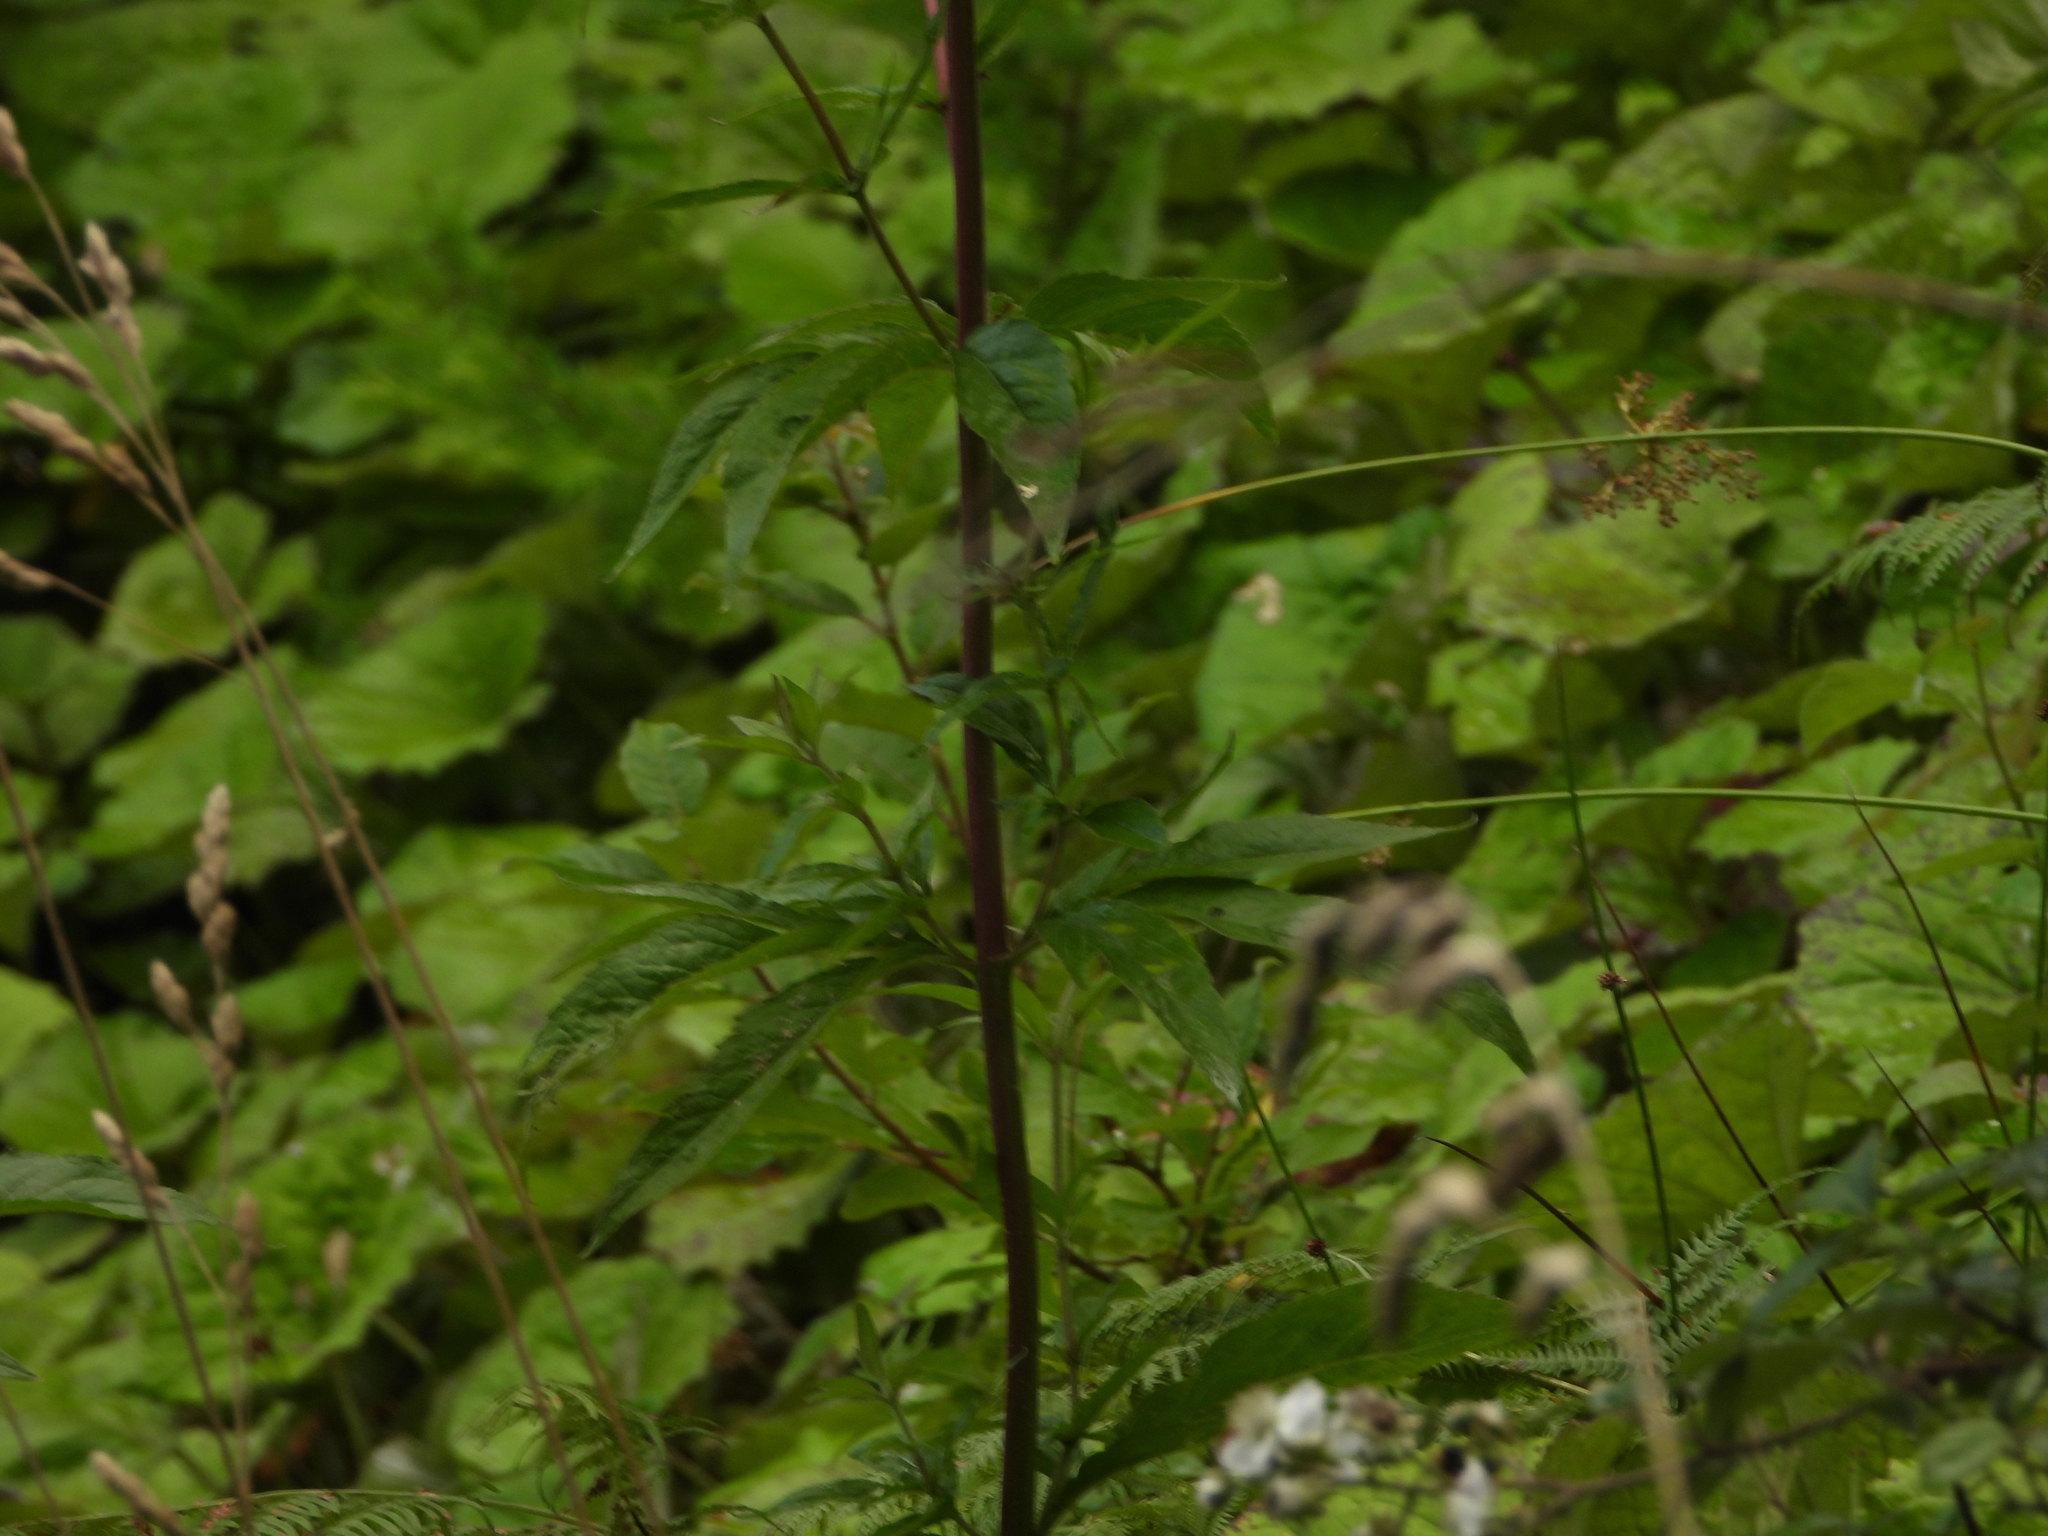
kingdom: Plantae
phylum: Tracheophyta
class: Magnoliopsida
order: Asterales
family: Asteraceae
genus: Eupatorium
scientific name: Eupatorium cannabinum
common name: Hemp-agrimony
